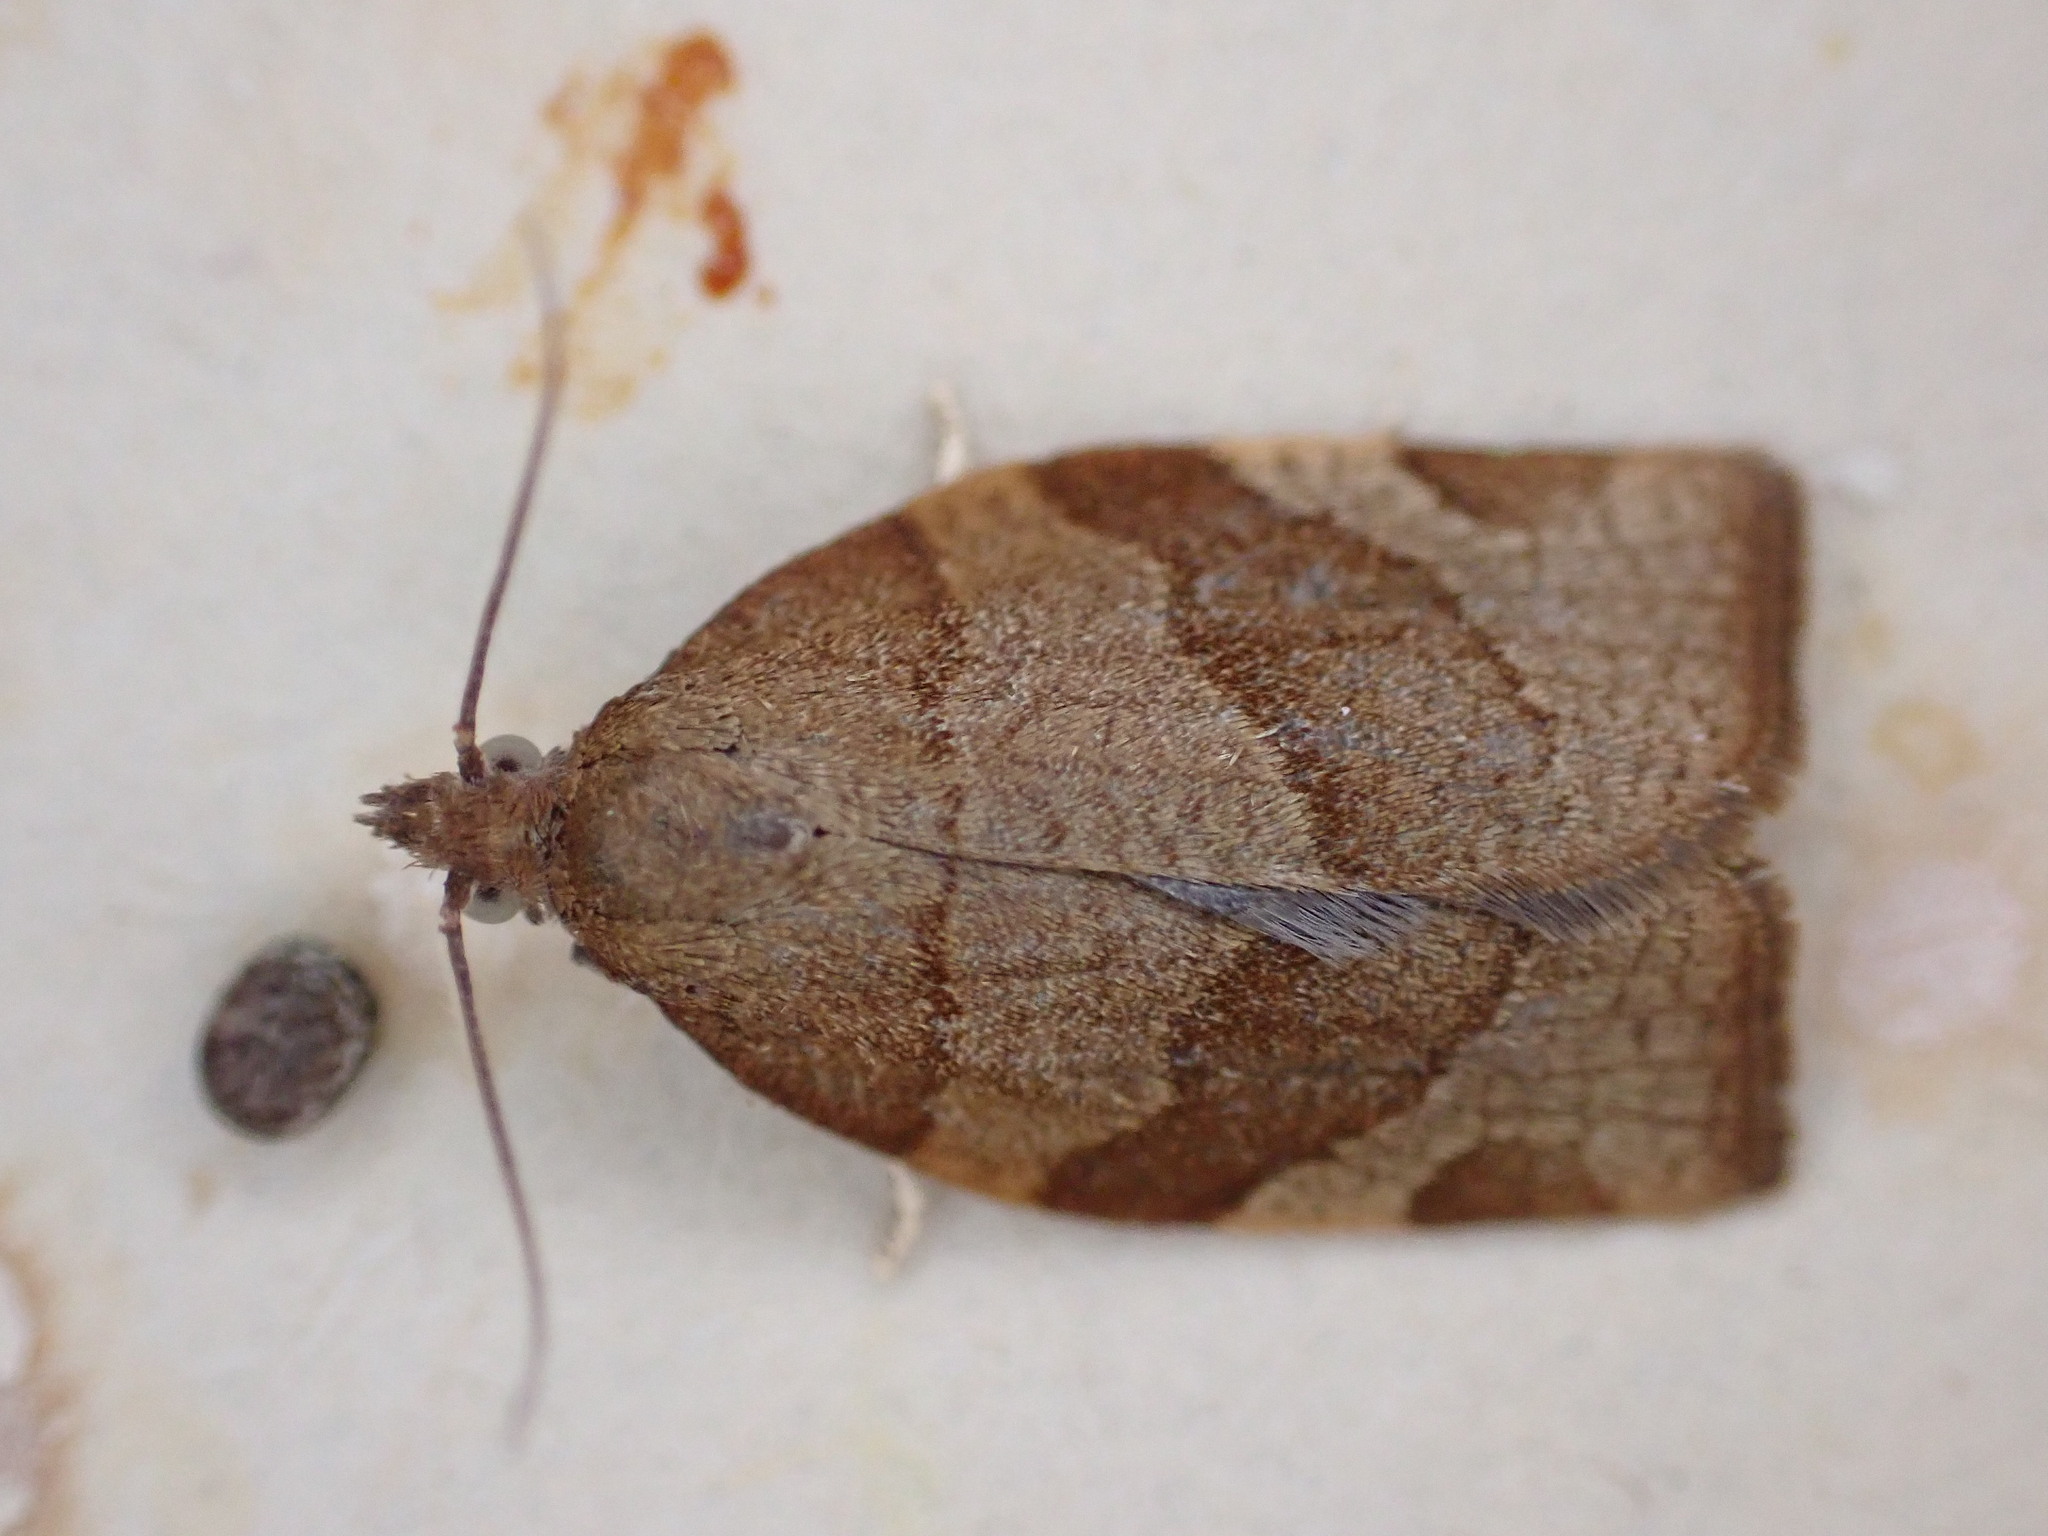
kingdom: Animalia
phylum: Arthropoda
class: Insecta
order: Lepidoptera
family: Tortricidae
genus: Pandemis
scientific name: Pandemis cerasana
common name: Barred fruit-tree tortrix
